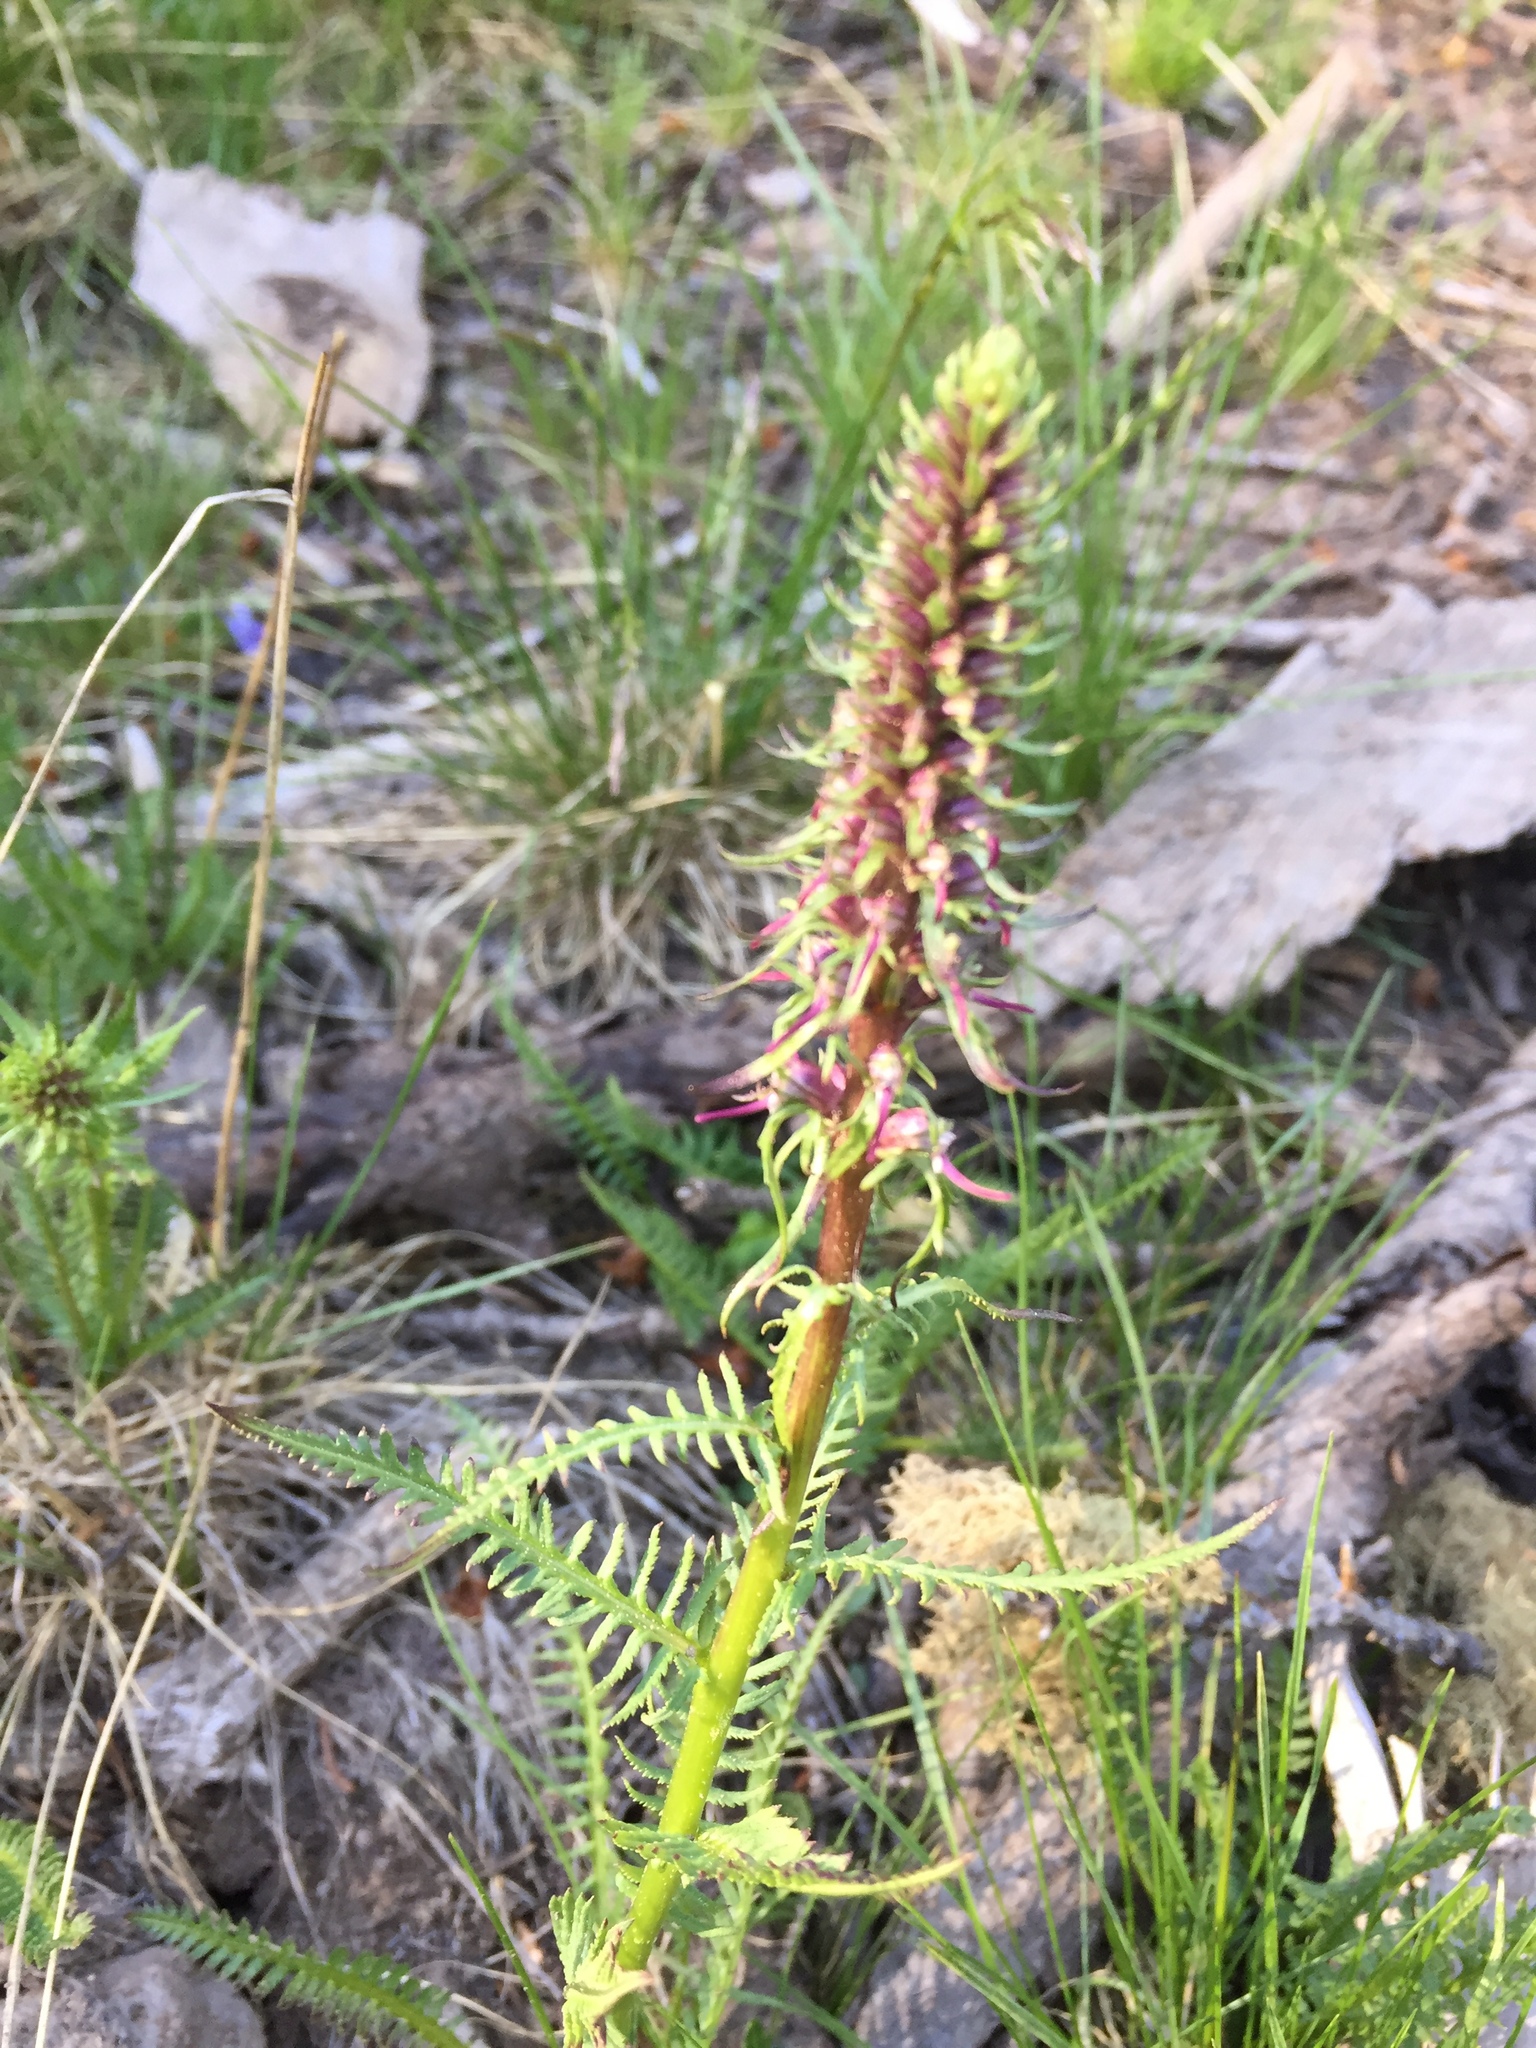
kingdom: Plantae
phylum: Tracheophyta
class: Magnoliopsida
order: Lamiales
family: Orobanchaceae
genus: Pedicularis
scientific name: Pedicularis groenlandica
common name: Elephant's-head
